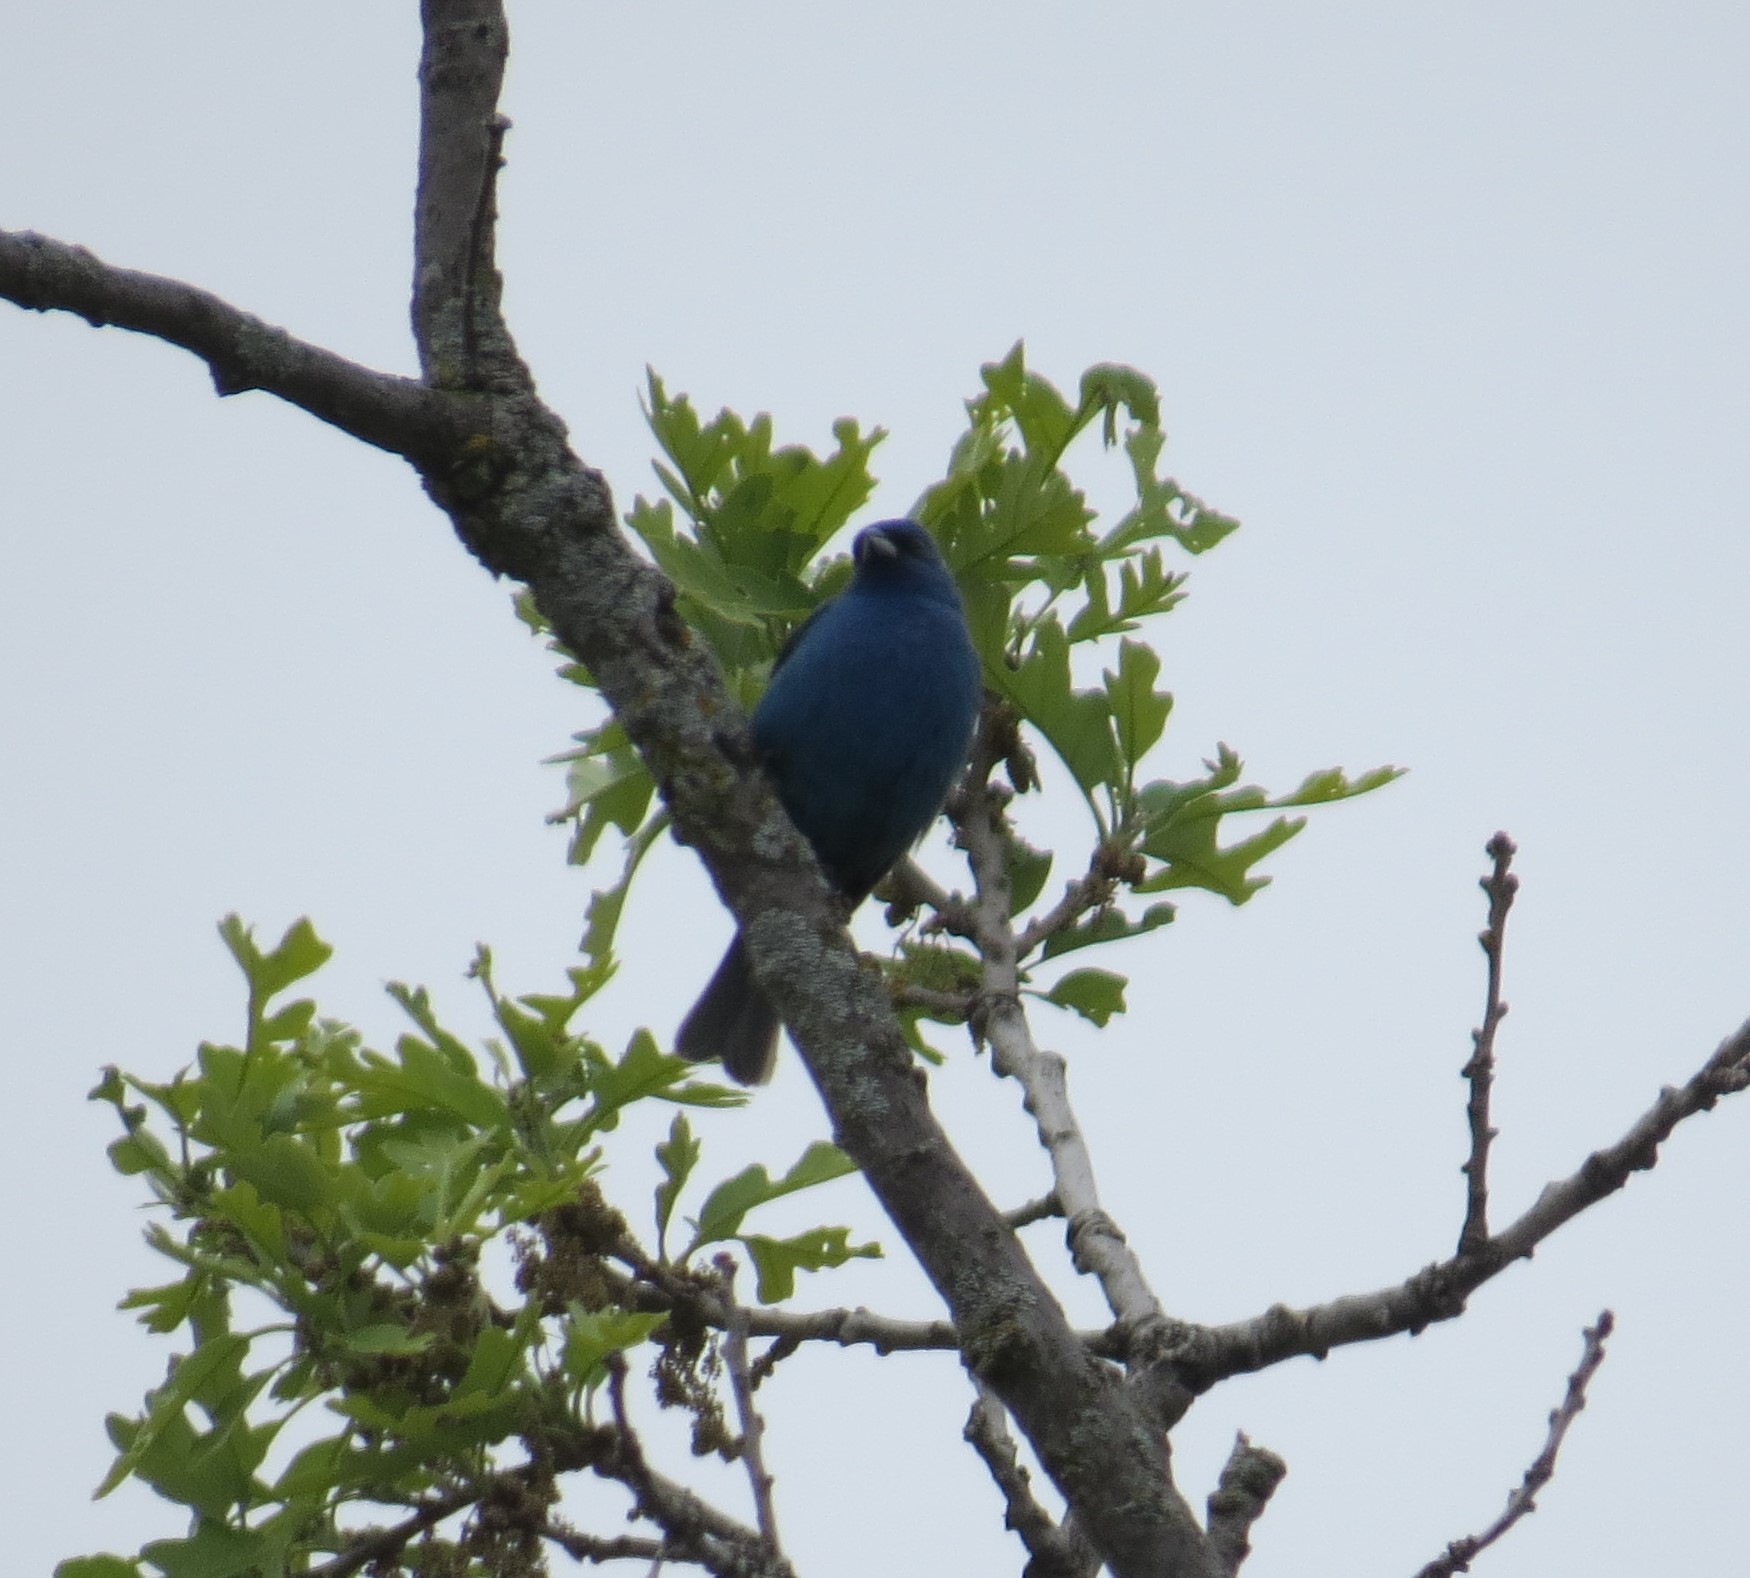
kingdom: Animalia
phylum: Chordata
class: Aves
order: Passeriformes
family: Cardinalidae
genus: Passerina
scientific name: Passerina cyanea
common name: Indigo bunting
